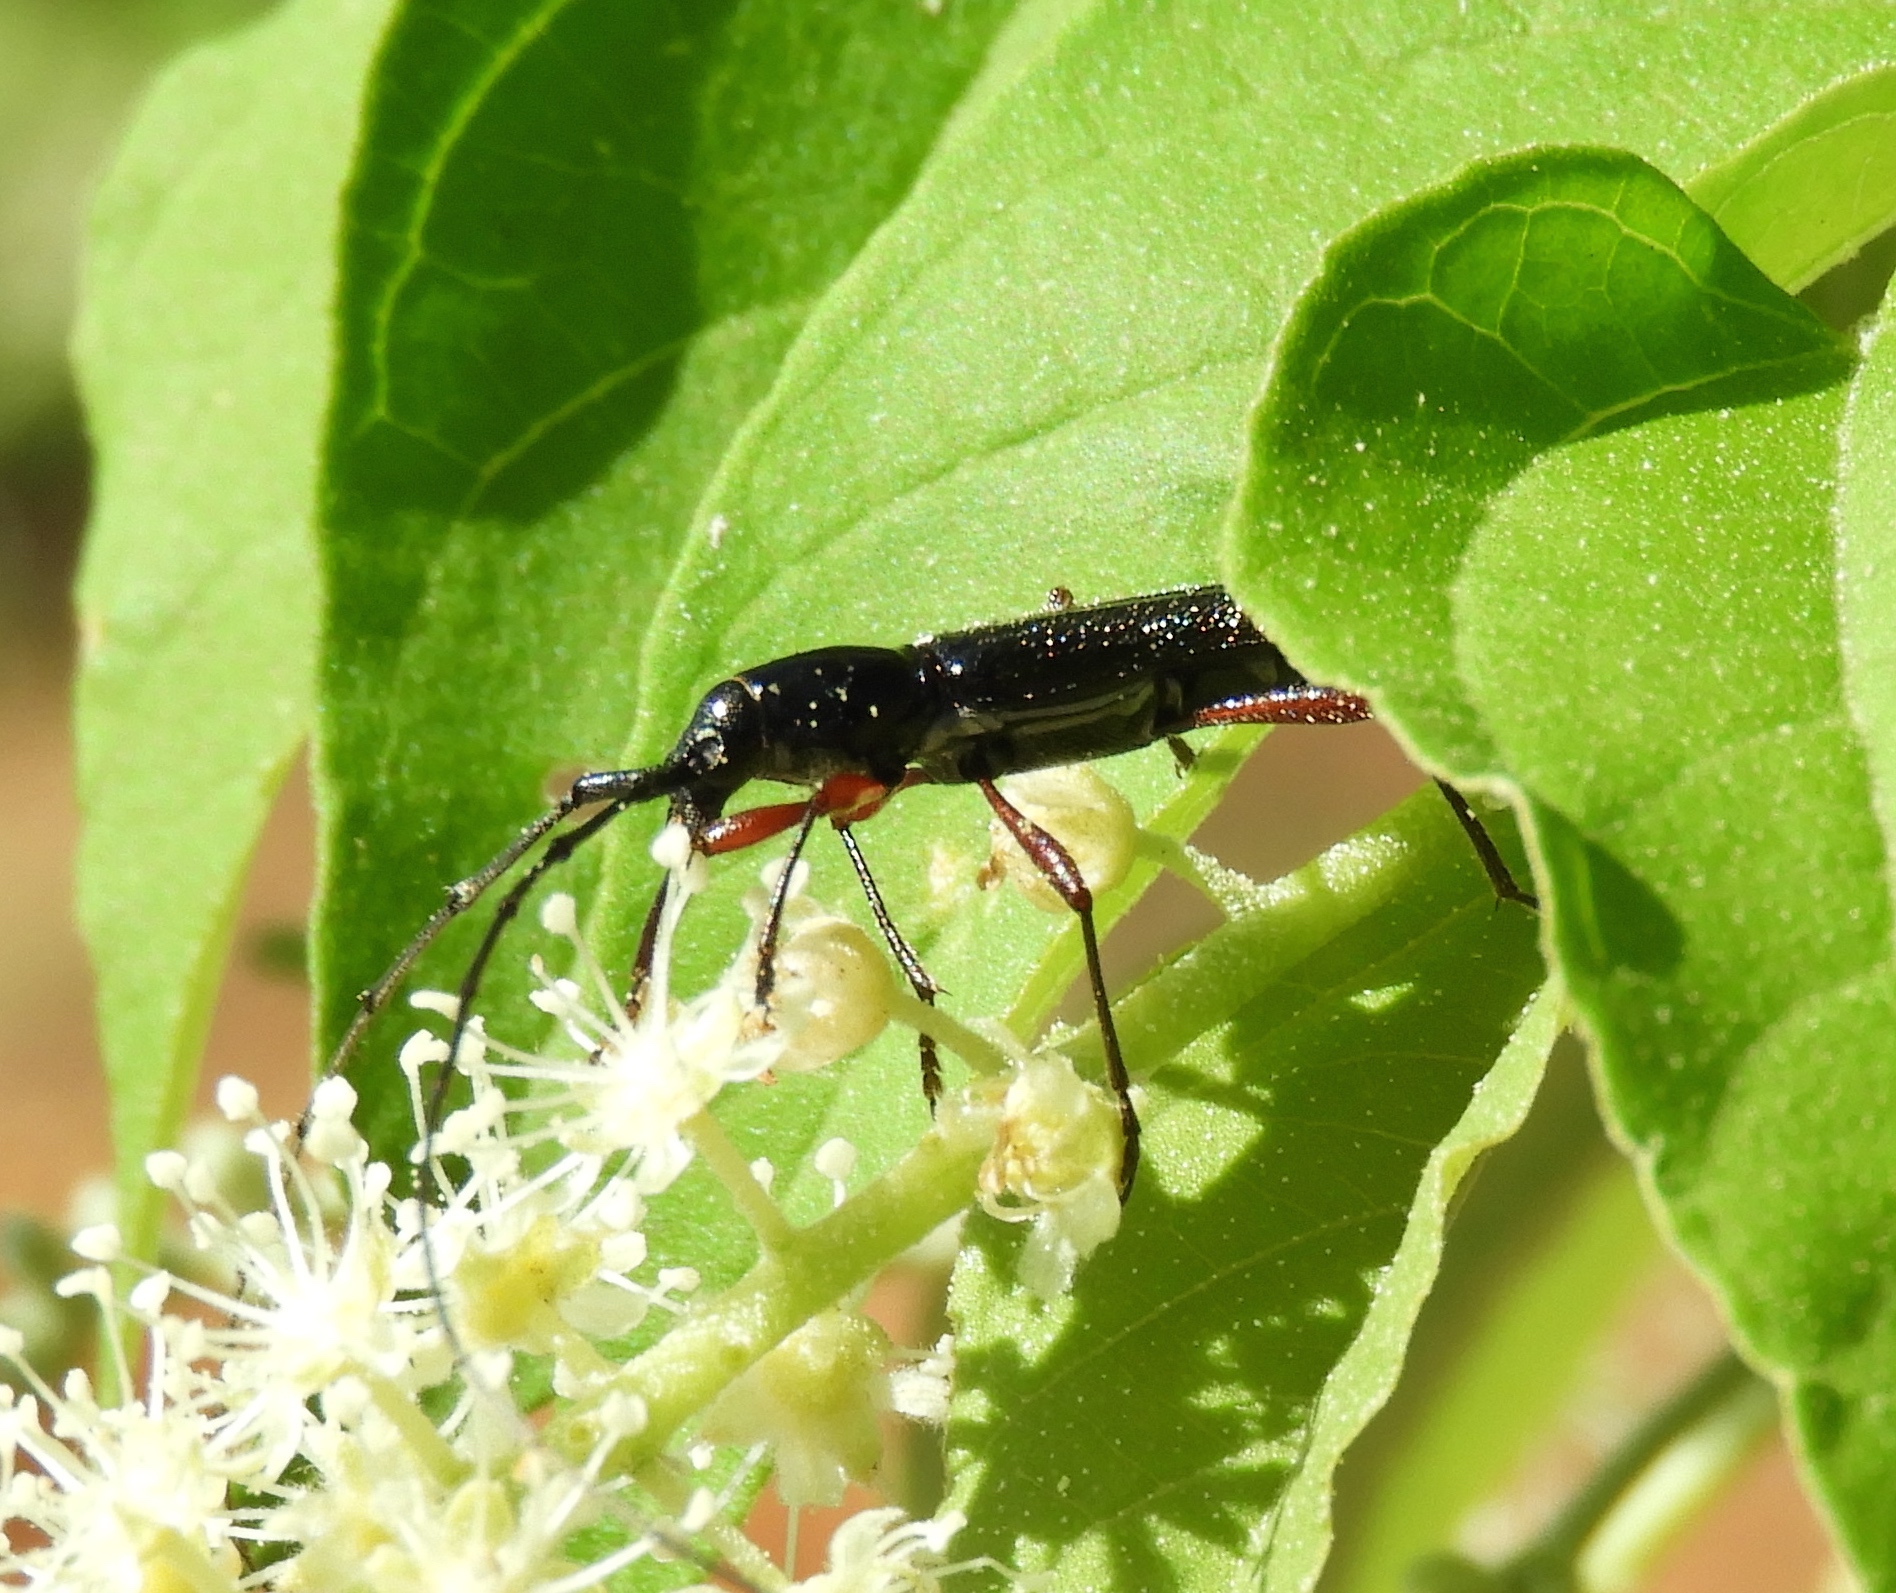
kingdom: Animalia
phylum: Arthropoda
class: Insecta
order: Coleoptera
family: Cerambycidae
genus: Stenosphenus
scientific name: Stenosphenus
